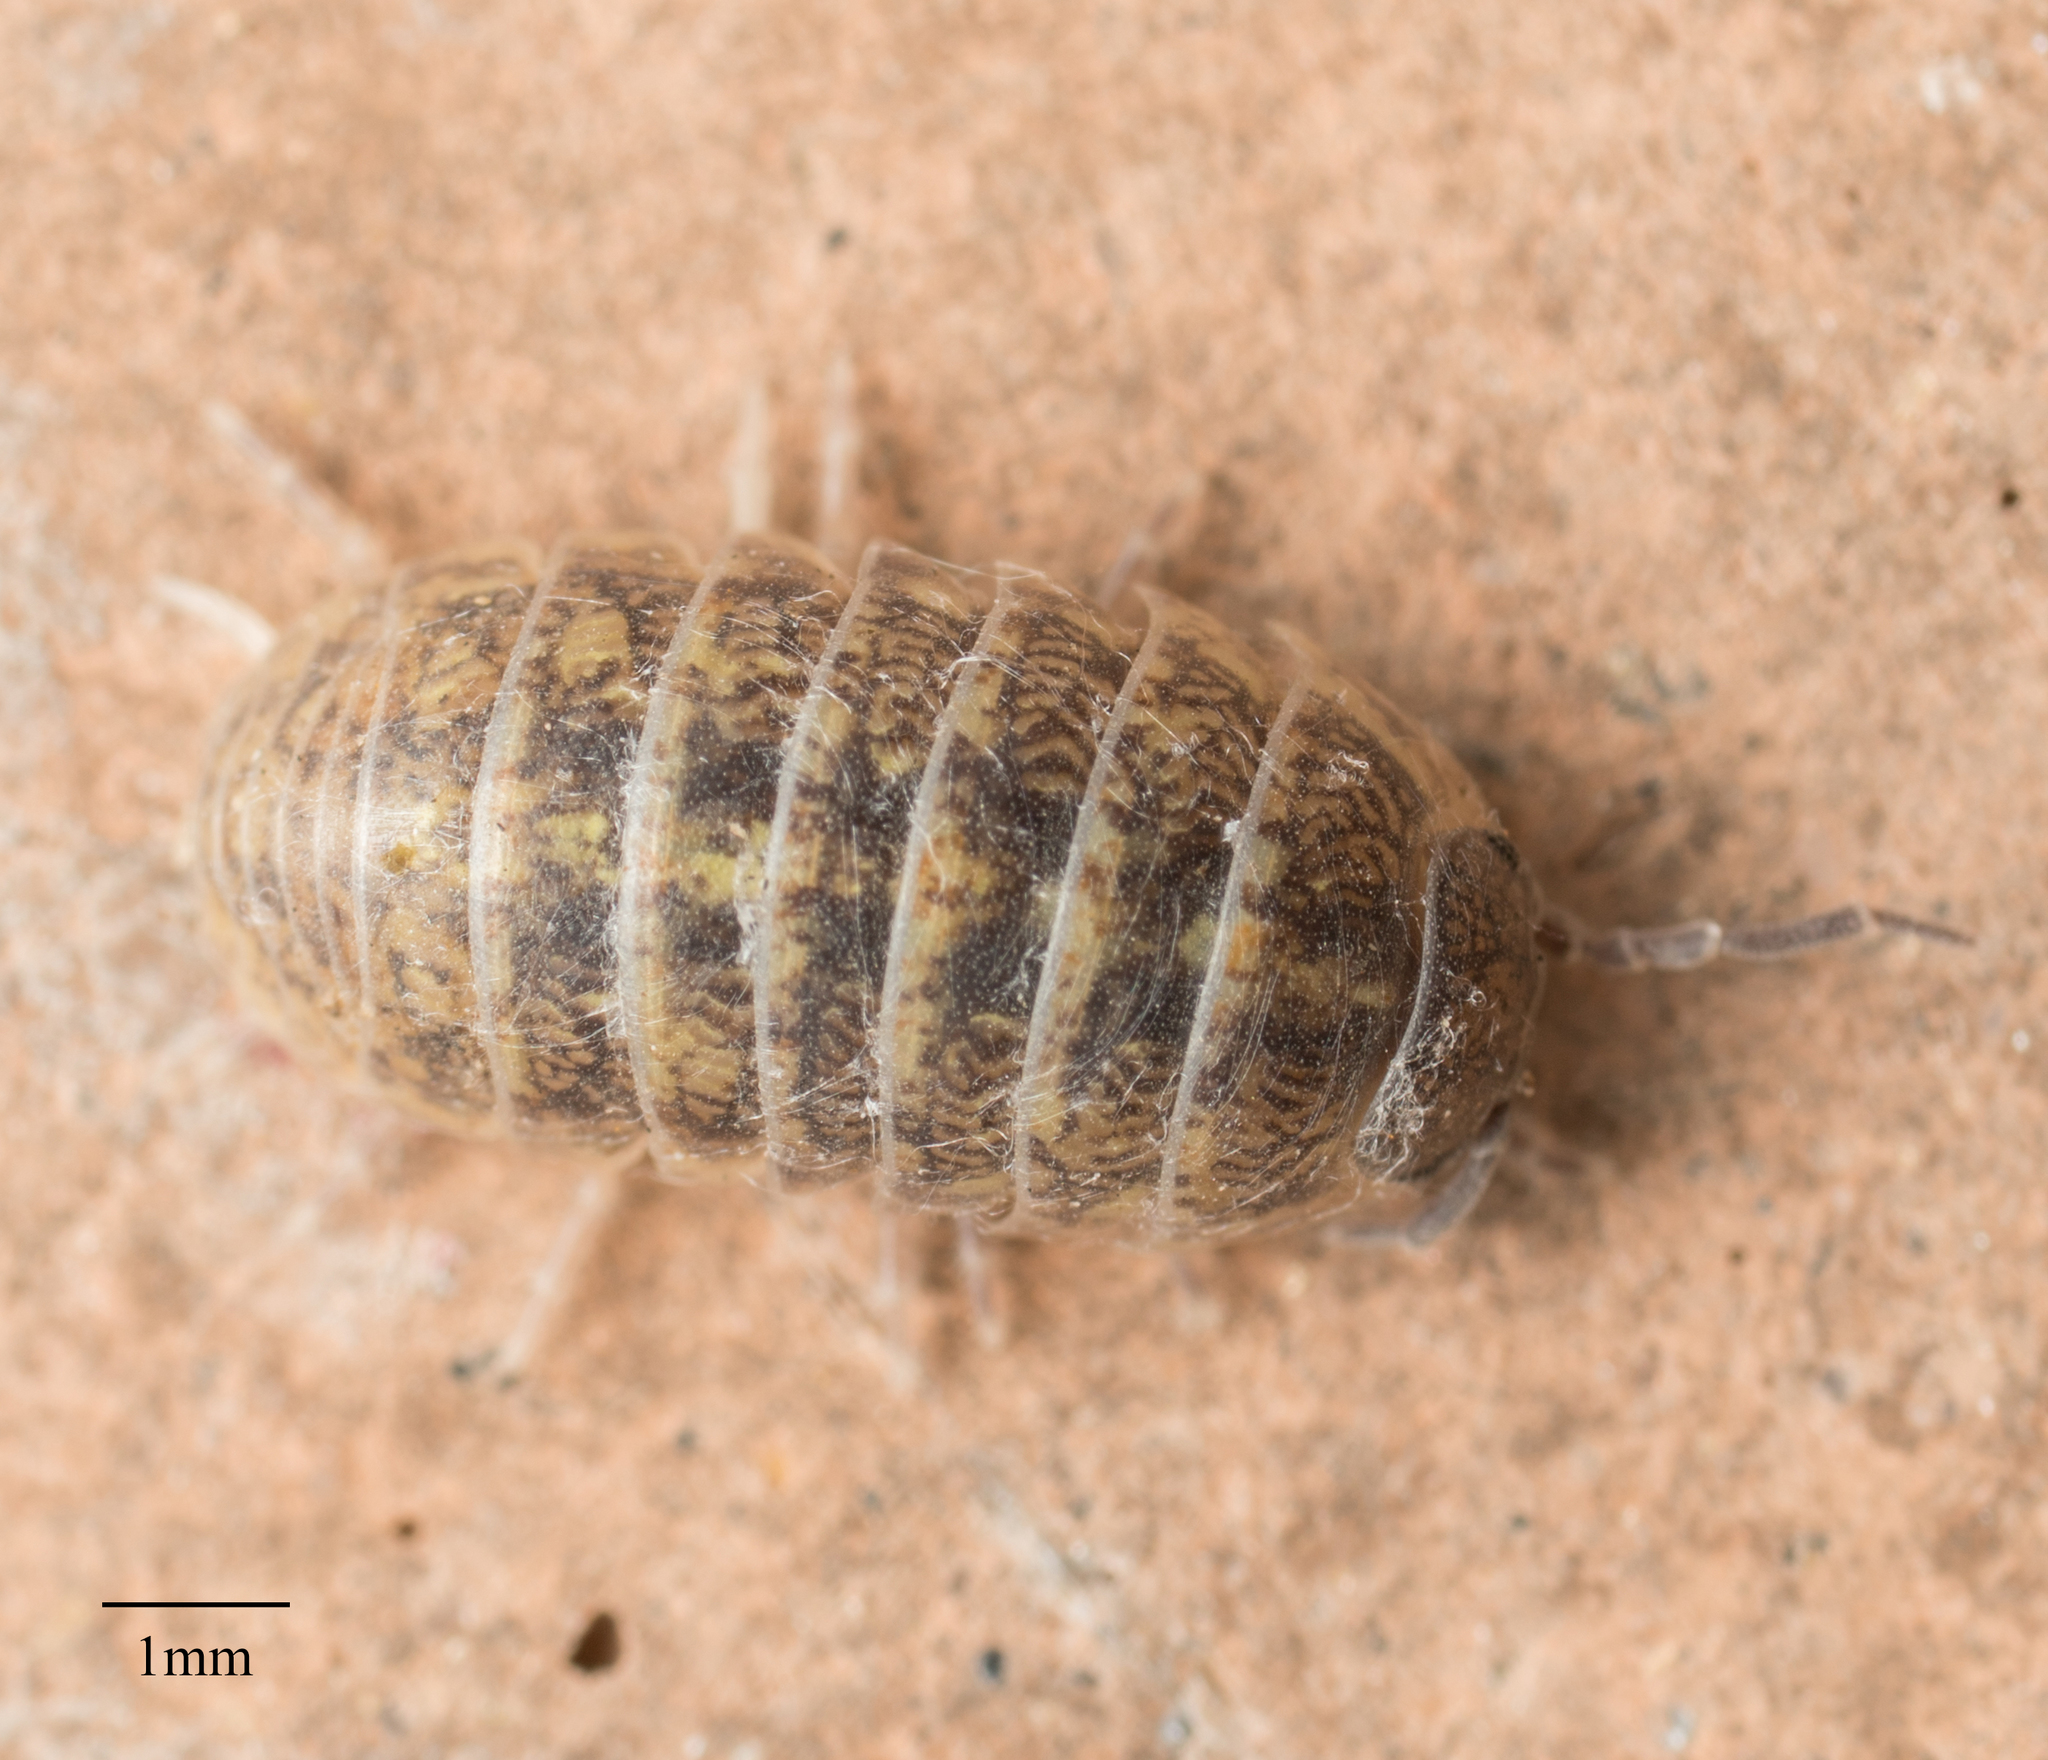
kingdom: Animalia
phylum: Arthropoda
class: Malacostraca
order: Isopoda
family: Armadillidiidae
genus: Armadillidium
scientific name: Armadillidium vulgare
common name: Common pill woodlouse
